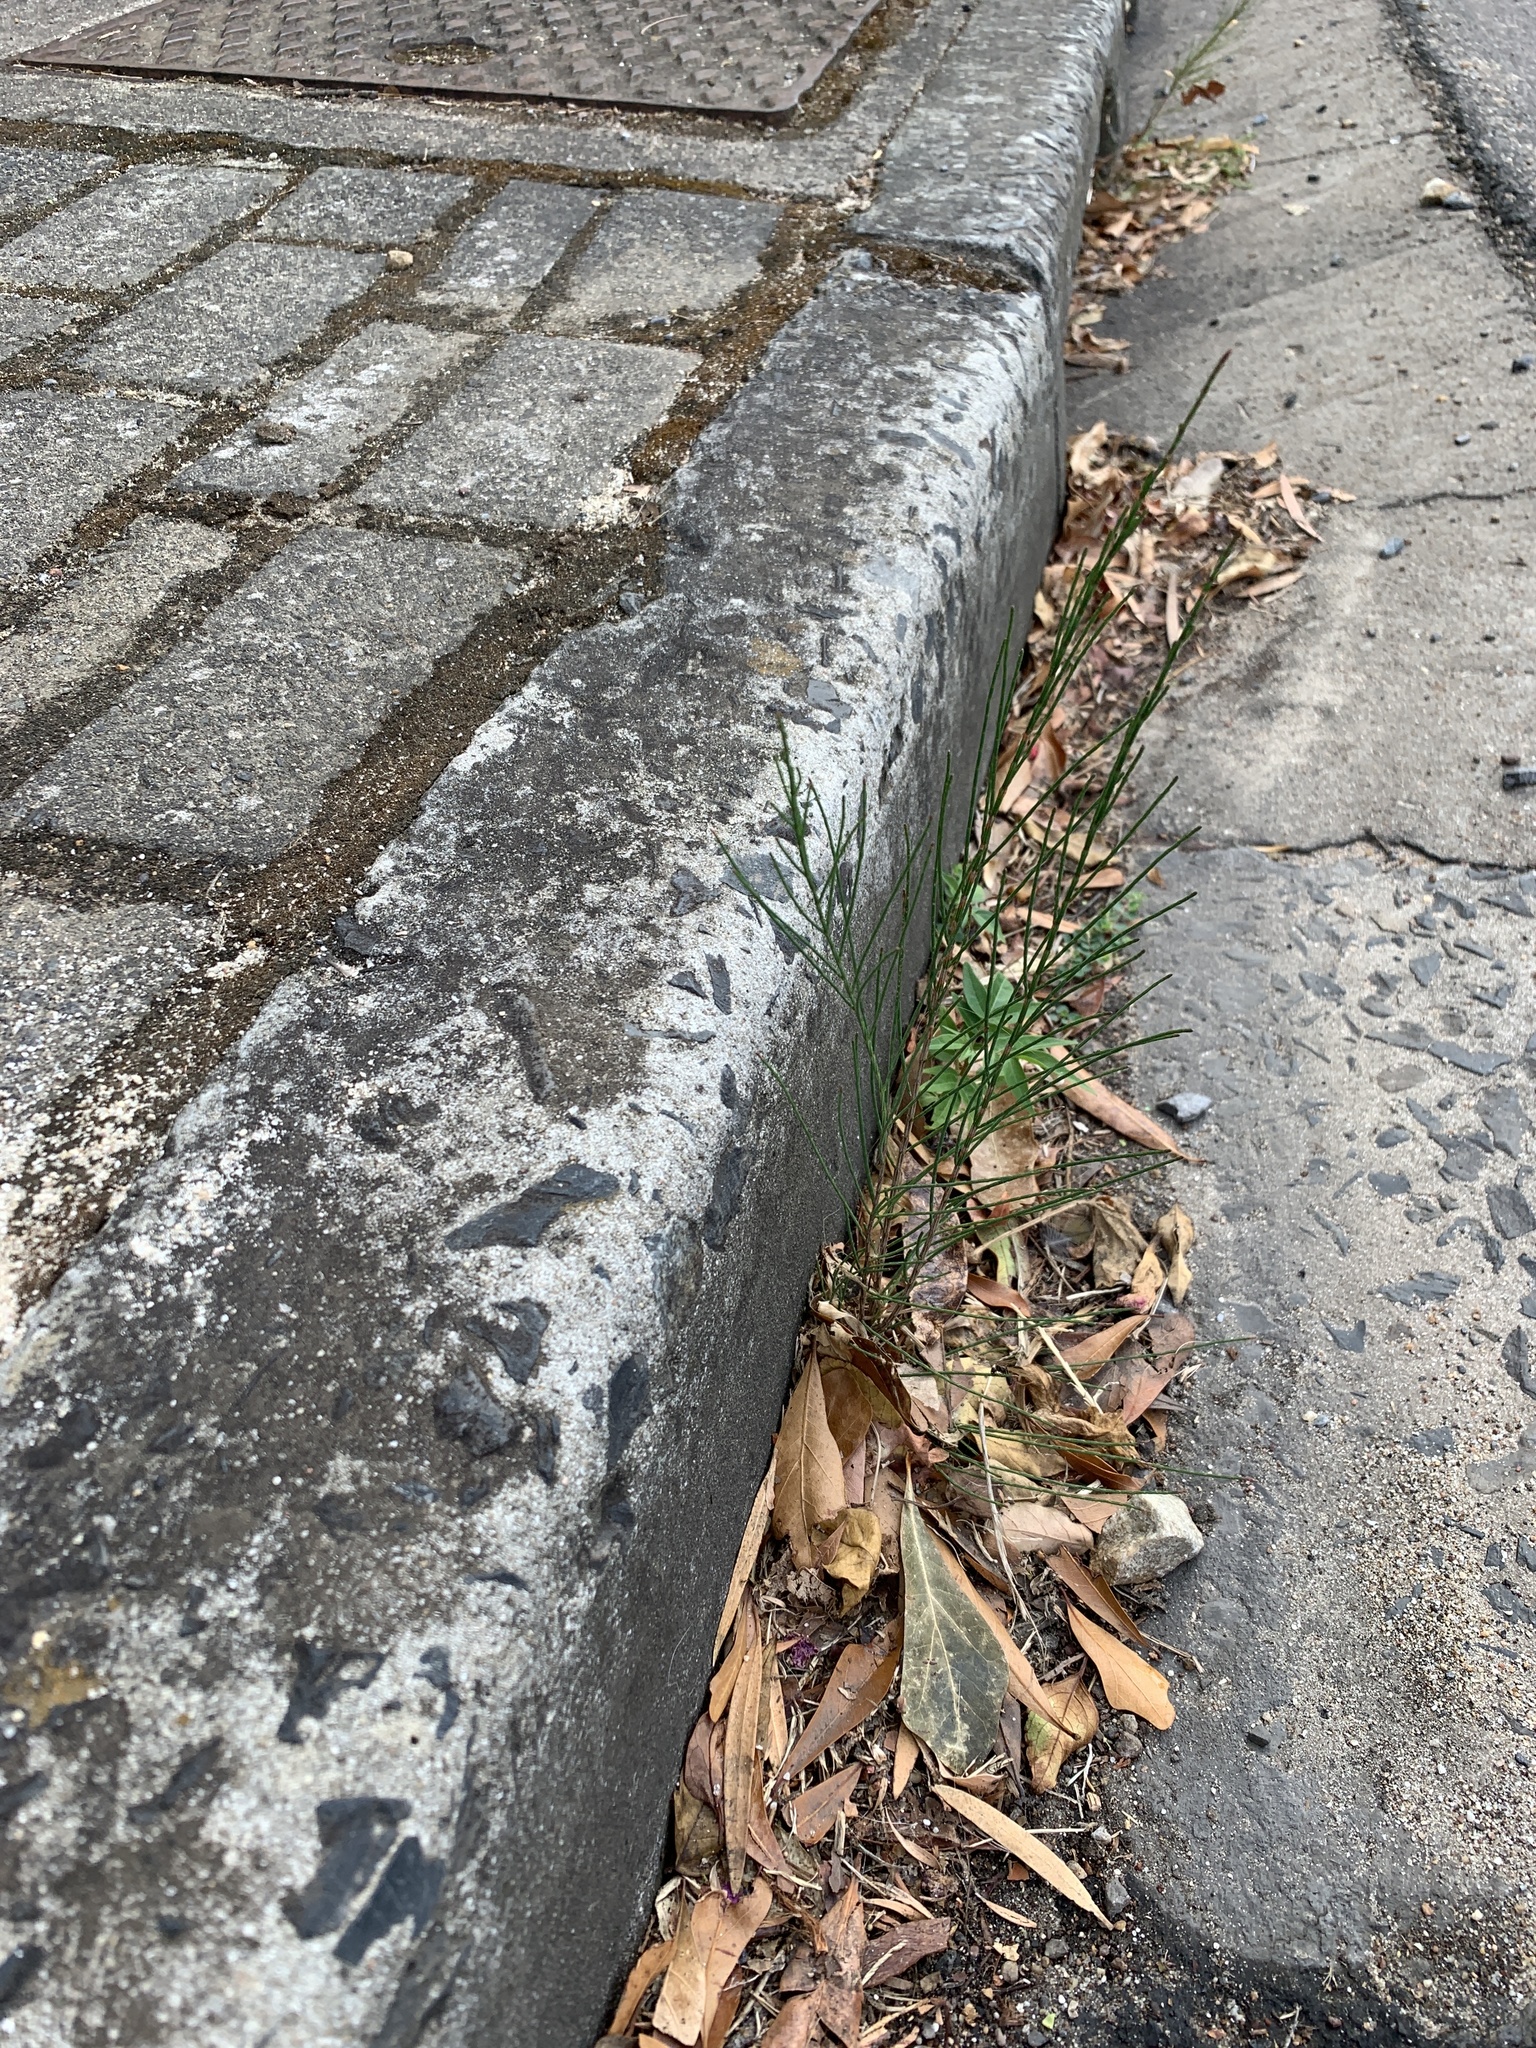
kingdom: Plantae
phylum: Tracheophyta
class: Magnoliopsida
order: Fagales
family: Casuarinaceae
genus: Casuarina
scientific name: Casuarina cunninghamiana
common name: River sheoak
